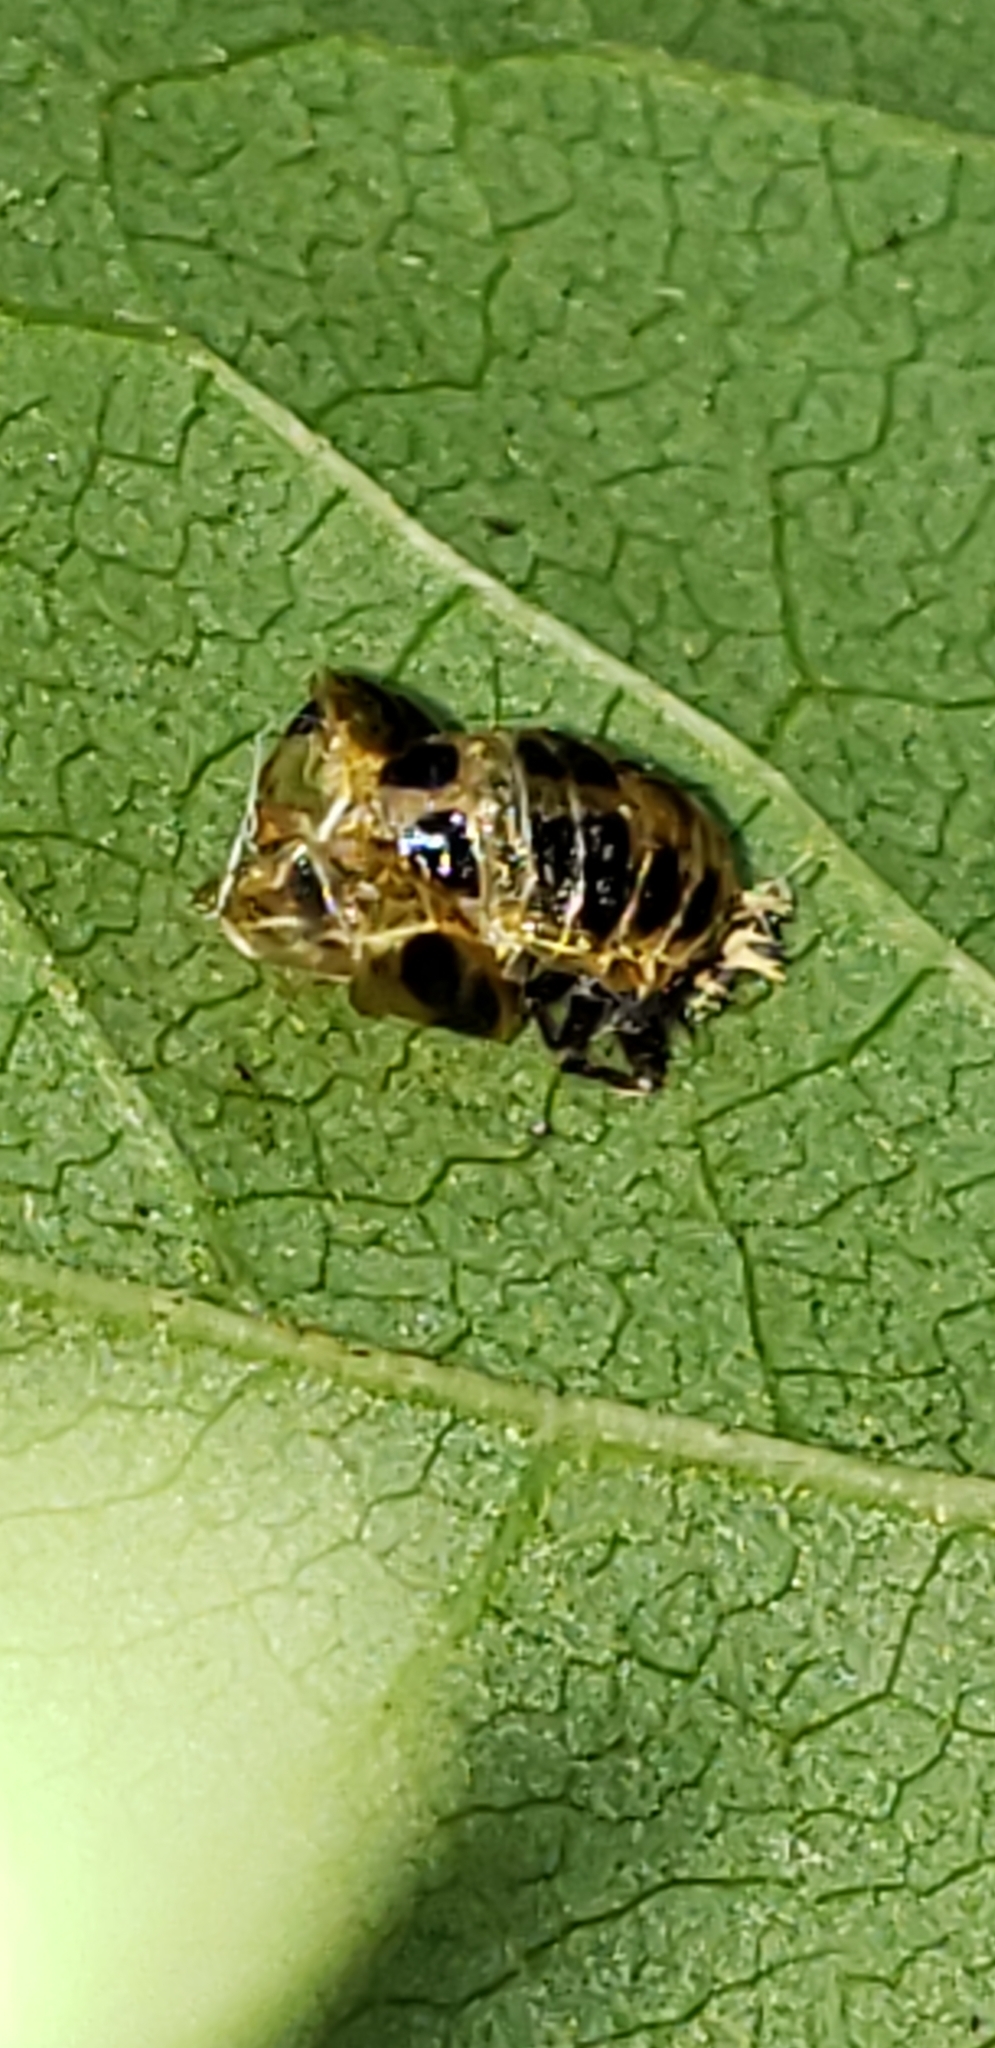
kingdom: Animalia
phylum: Arthropoda
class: Insecta
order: Coleoptera
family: Coccinellidae
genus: Harmonia
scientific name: Harmonia axyridis
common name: Harlequin ladybird
